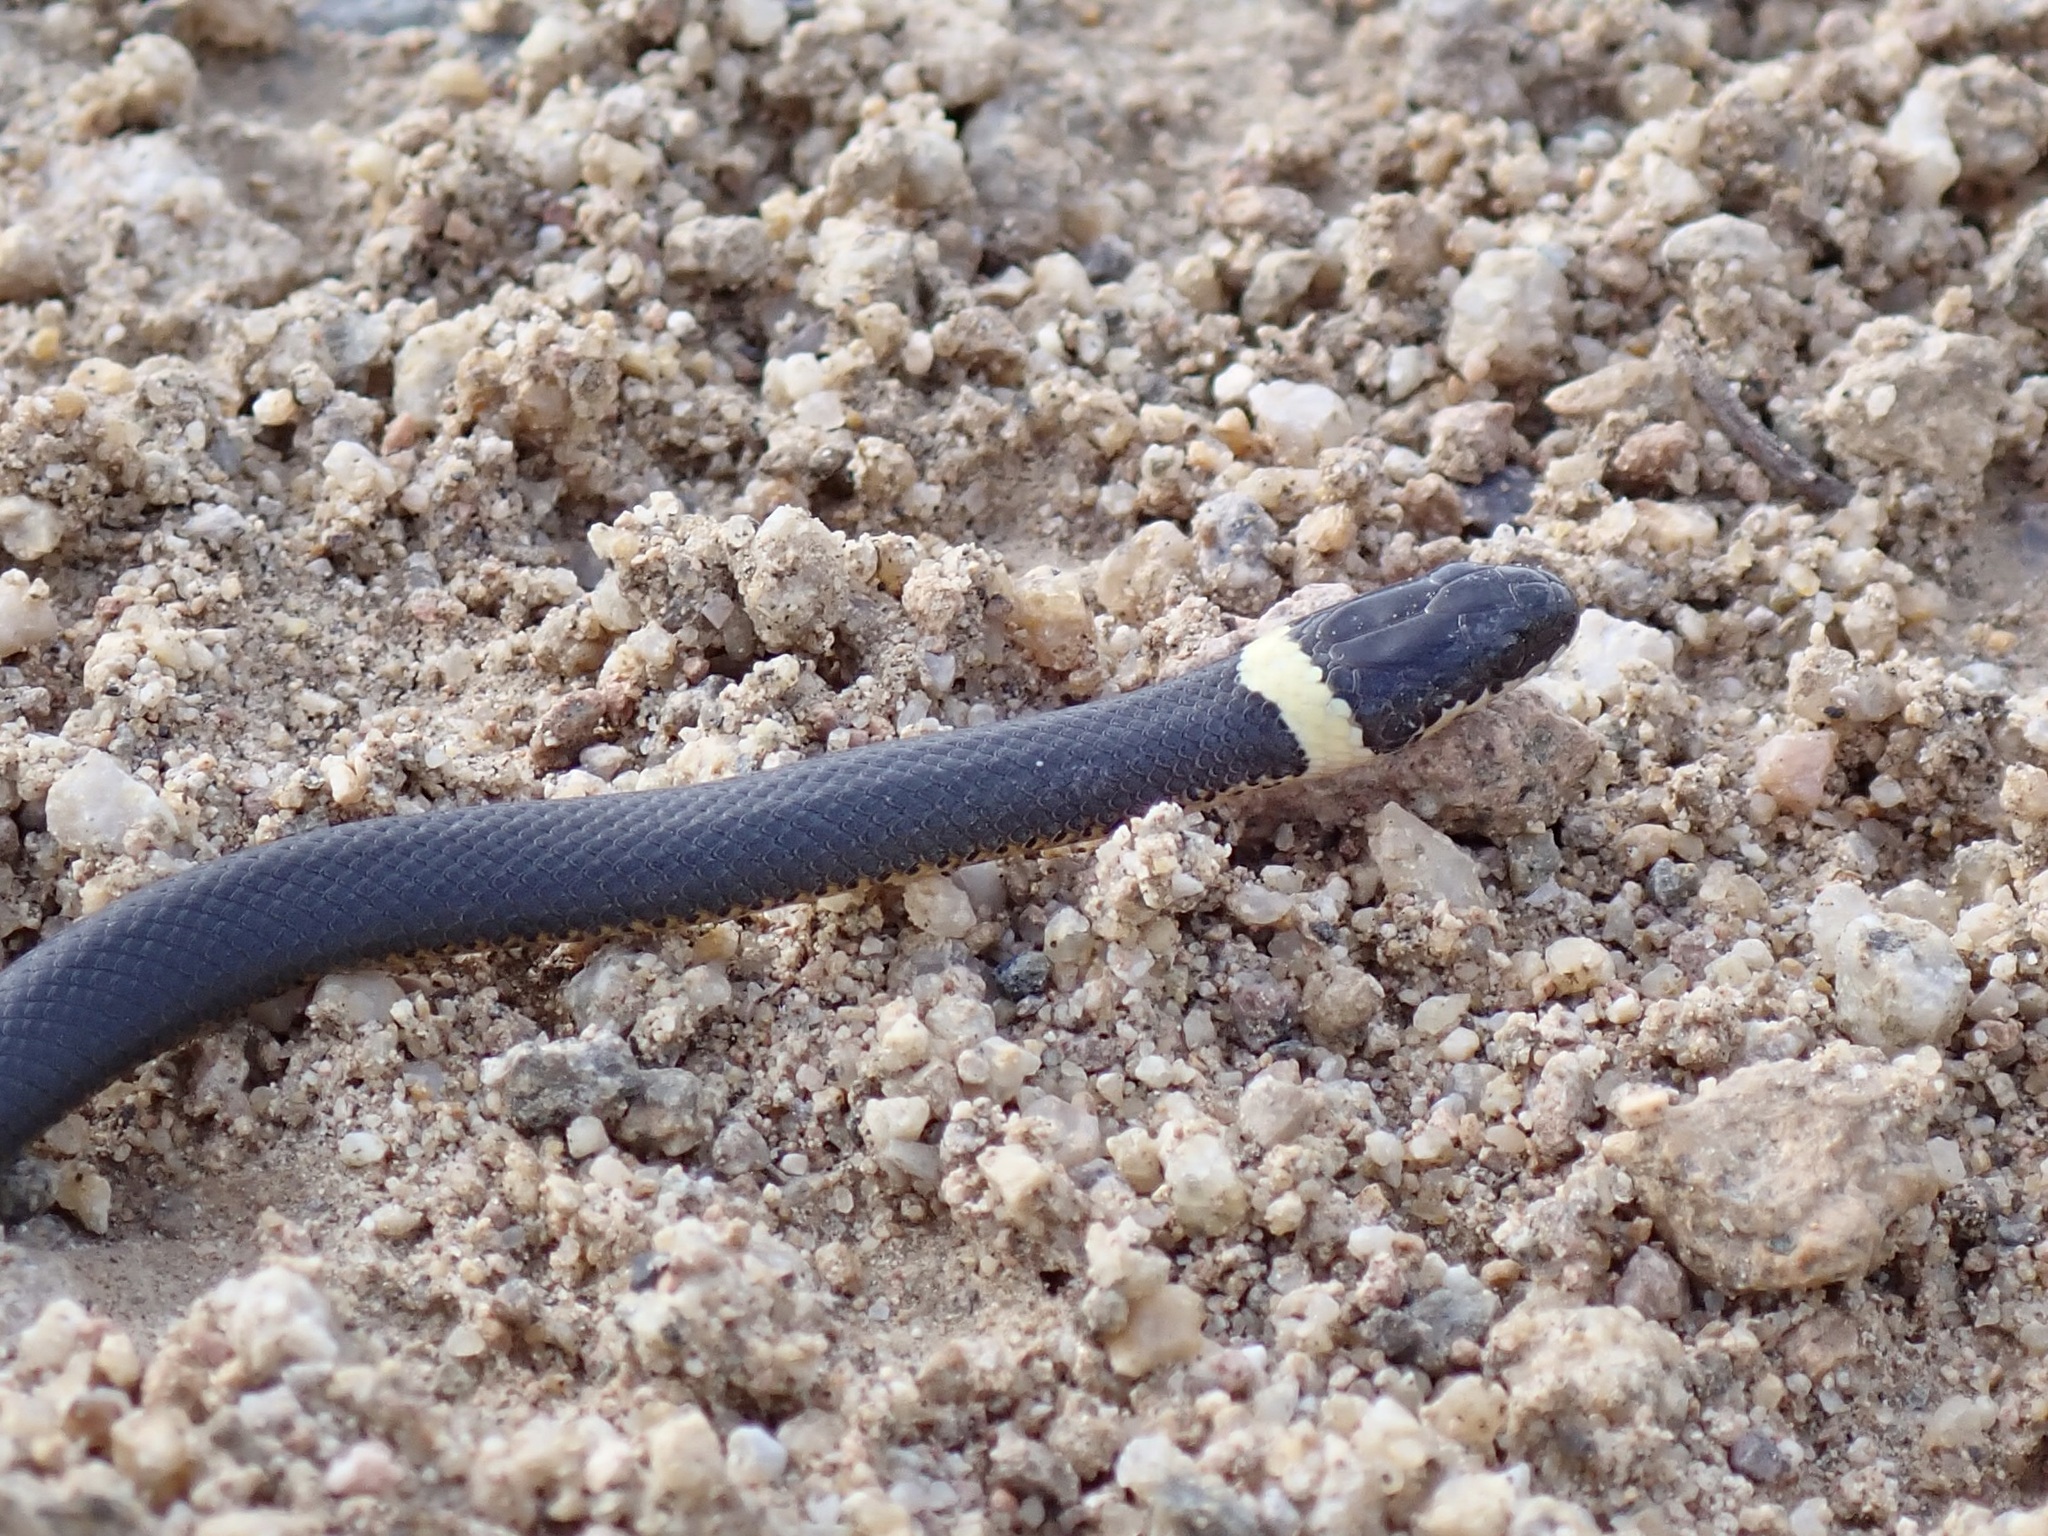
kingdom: Animalia
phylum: Chordata
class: Squamata
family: Colubridae
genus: Diadophis
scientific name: Diadophis punctatus
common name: Ringneck snake
